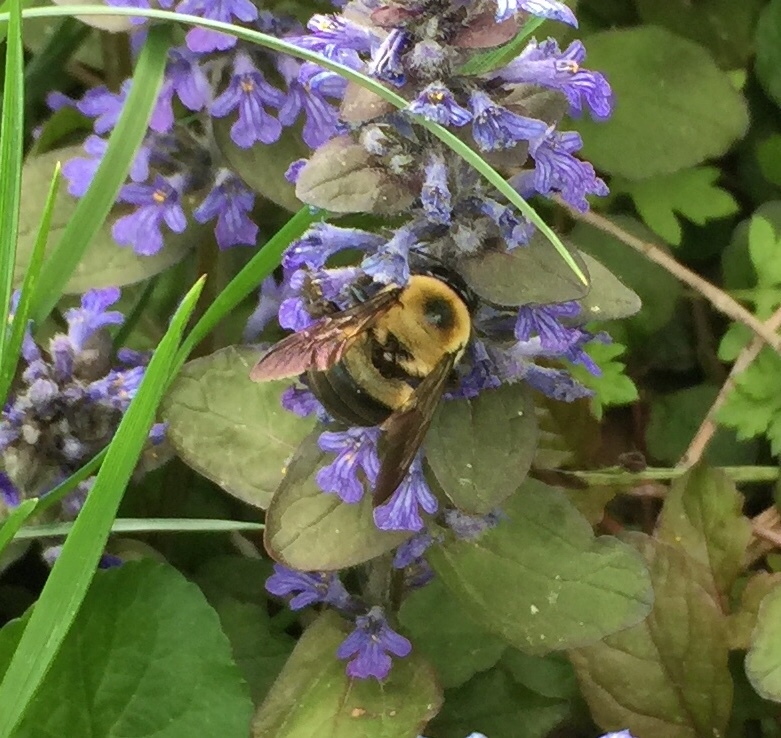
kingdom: Animalia
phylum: Arthropoda
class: Insecta
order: Hymenoptera
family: Apidae
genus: Xylocopa
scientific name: Xylocopa virginica
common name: Carpenter bee
